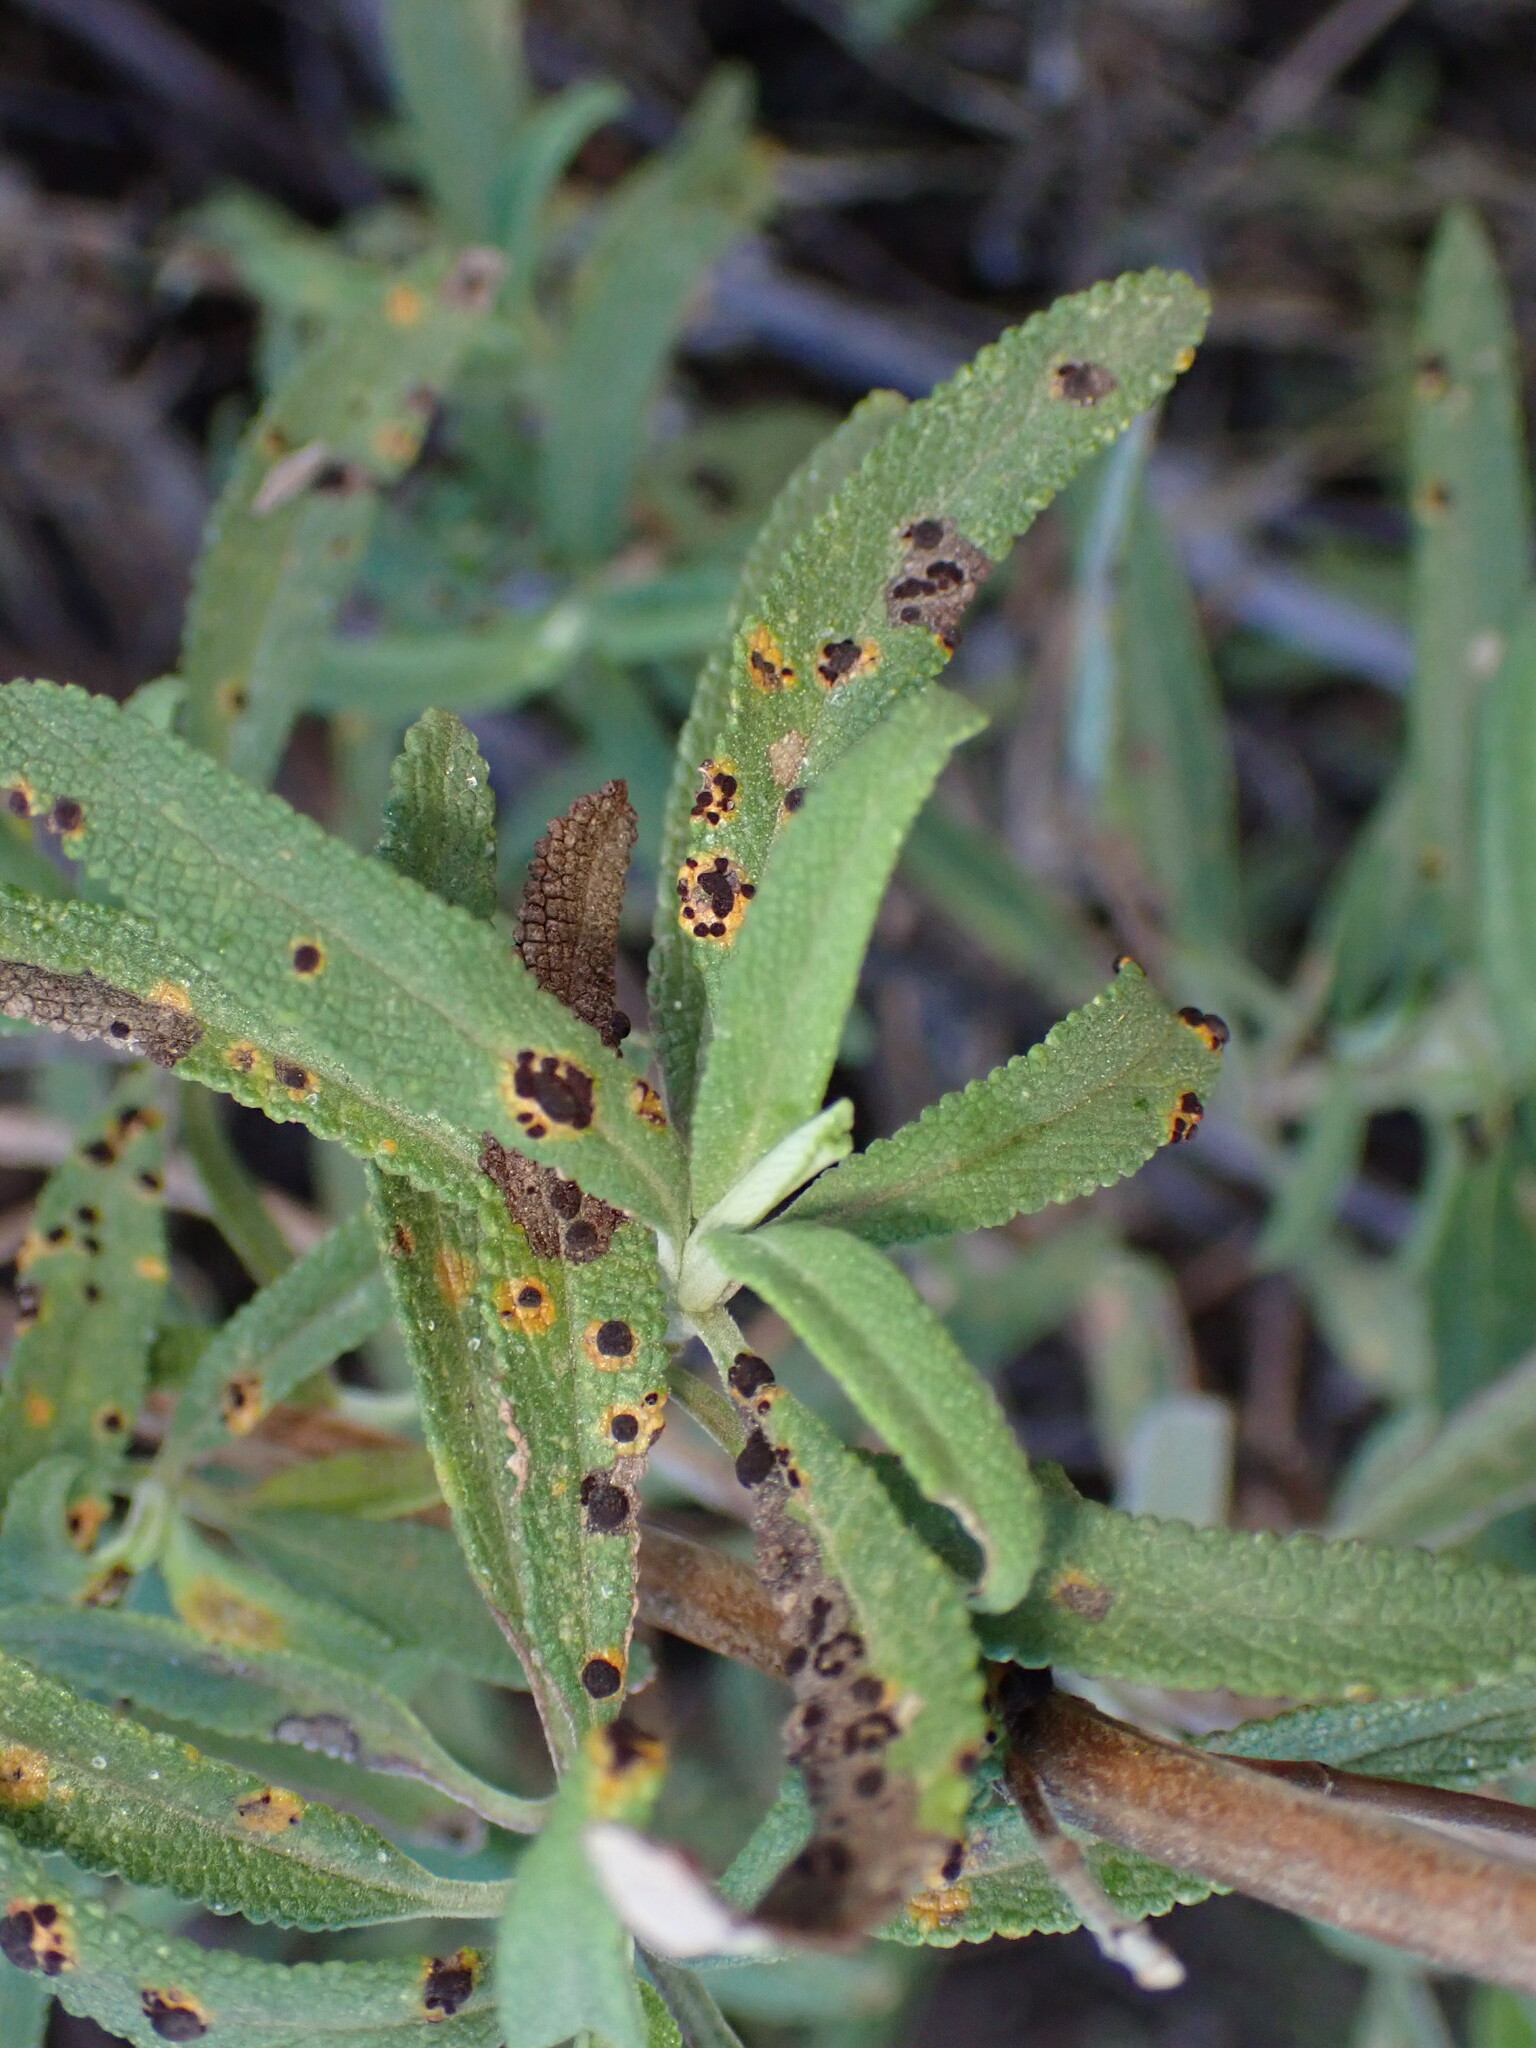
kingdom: Plantae
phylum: Tracheophyta
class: Magnoliopsida
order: Lamiales
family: Lamiaceae
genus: Salvia
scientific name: Salvia mellifera
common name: Black sage
